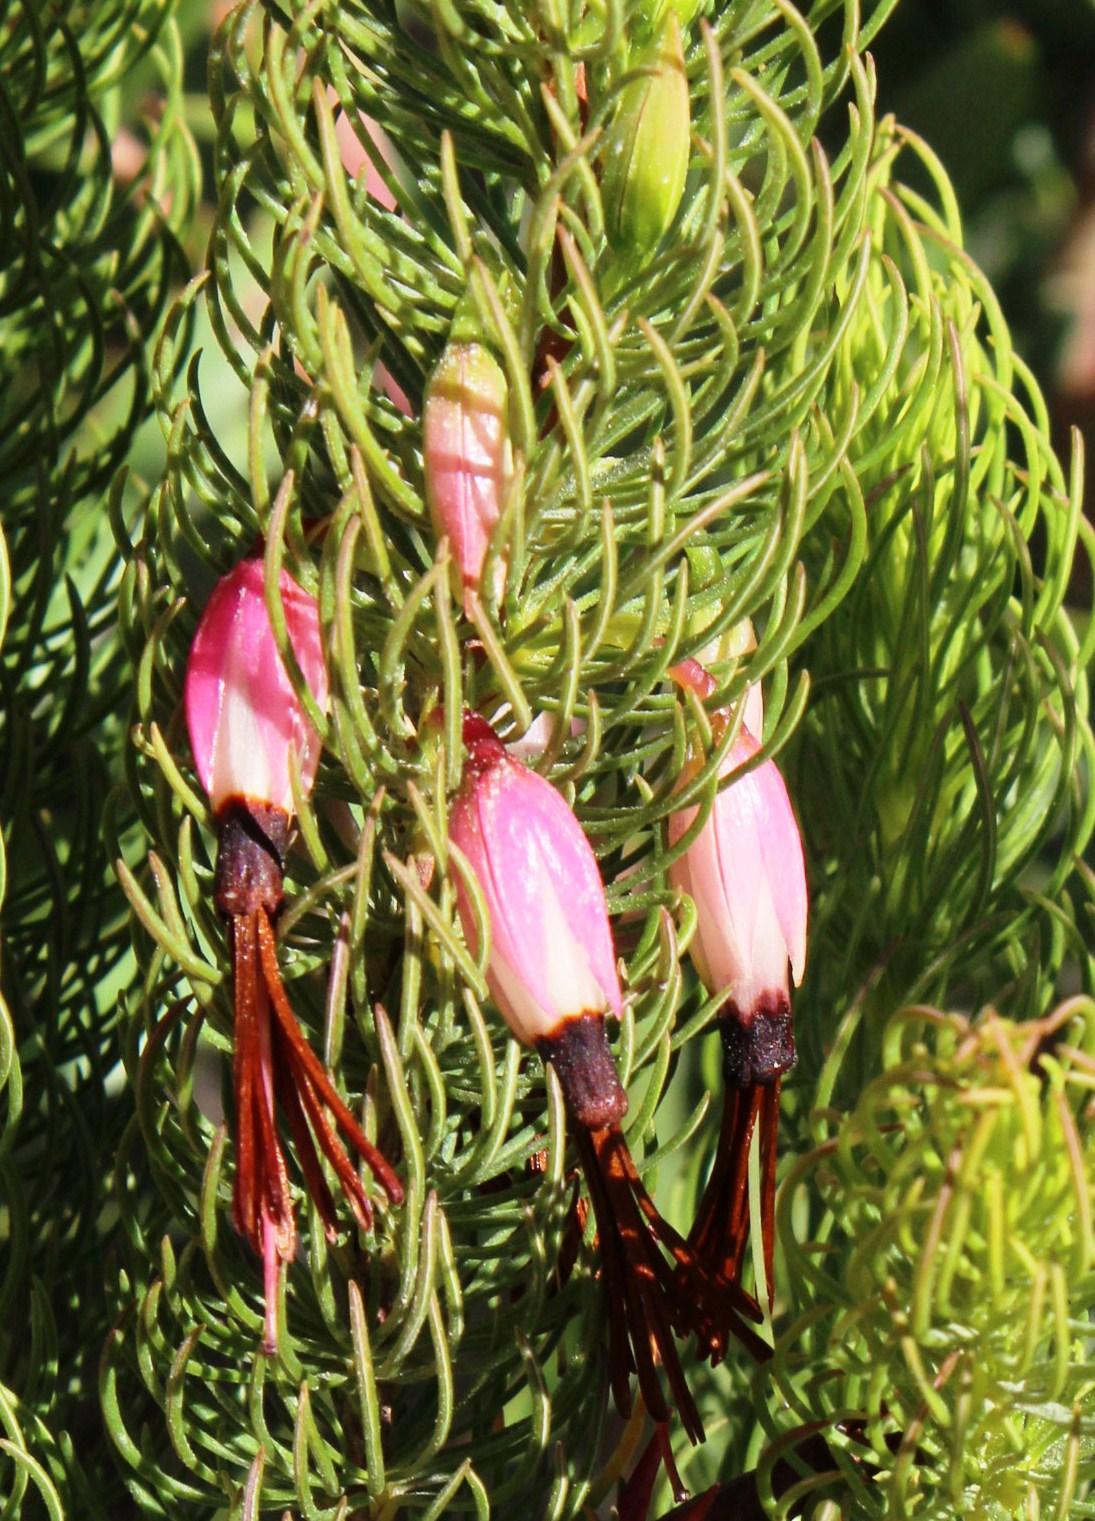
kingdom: Plantae
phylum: Tracheophyta
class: Magnoliopsida
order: Ericales
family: Ericaceae
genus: Erica
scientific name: Erica plukenetii
